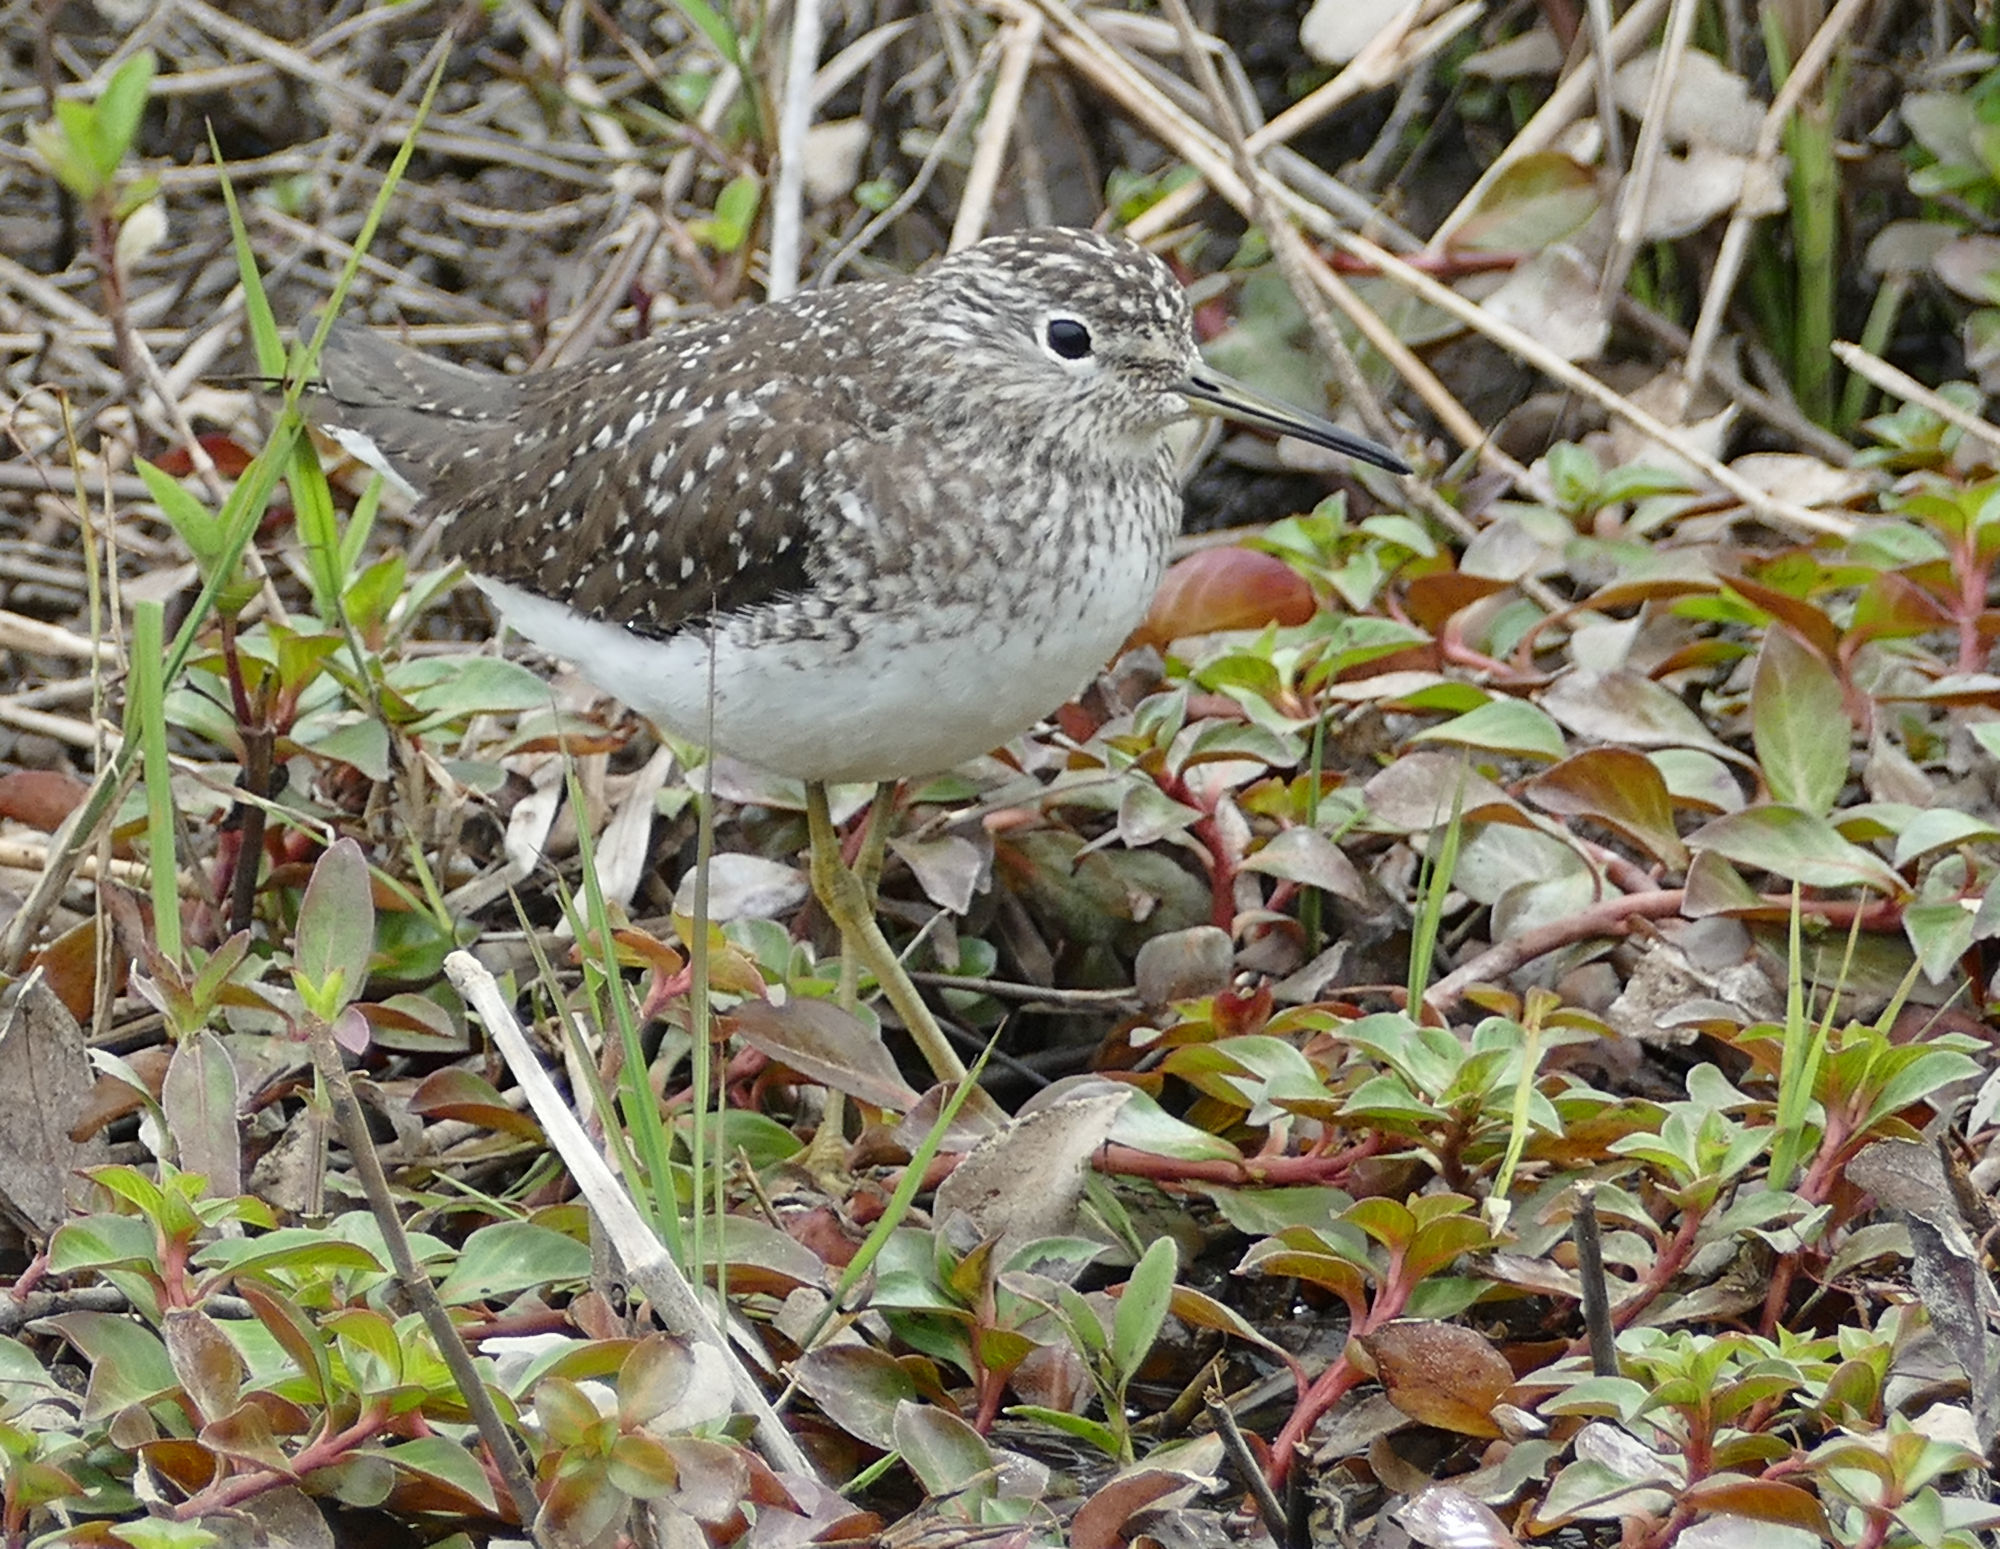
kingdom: Animalia
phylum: Chordata
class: Aves
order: Charadriiformes
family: Scolopacidae
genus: Tringa
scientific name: Tringa solitaria
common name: Solitary sandpiper
